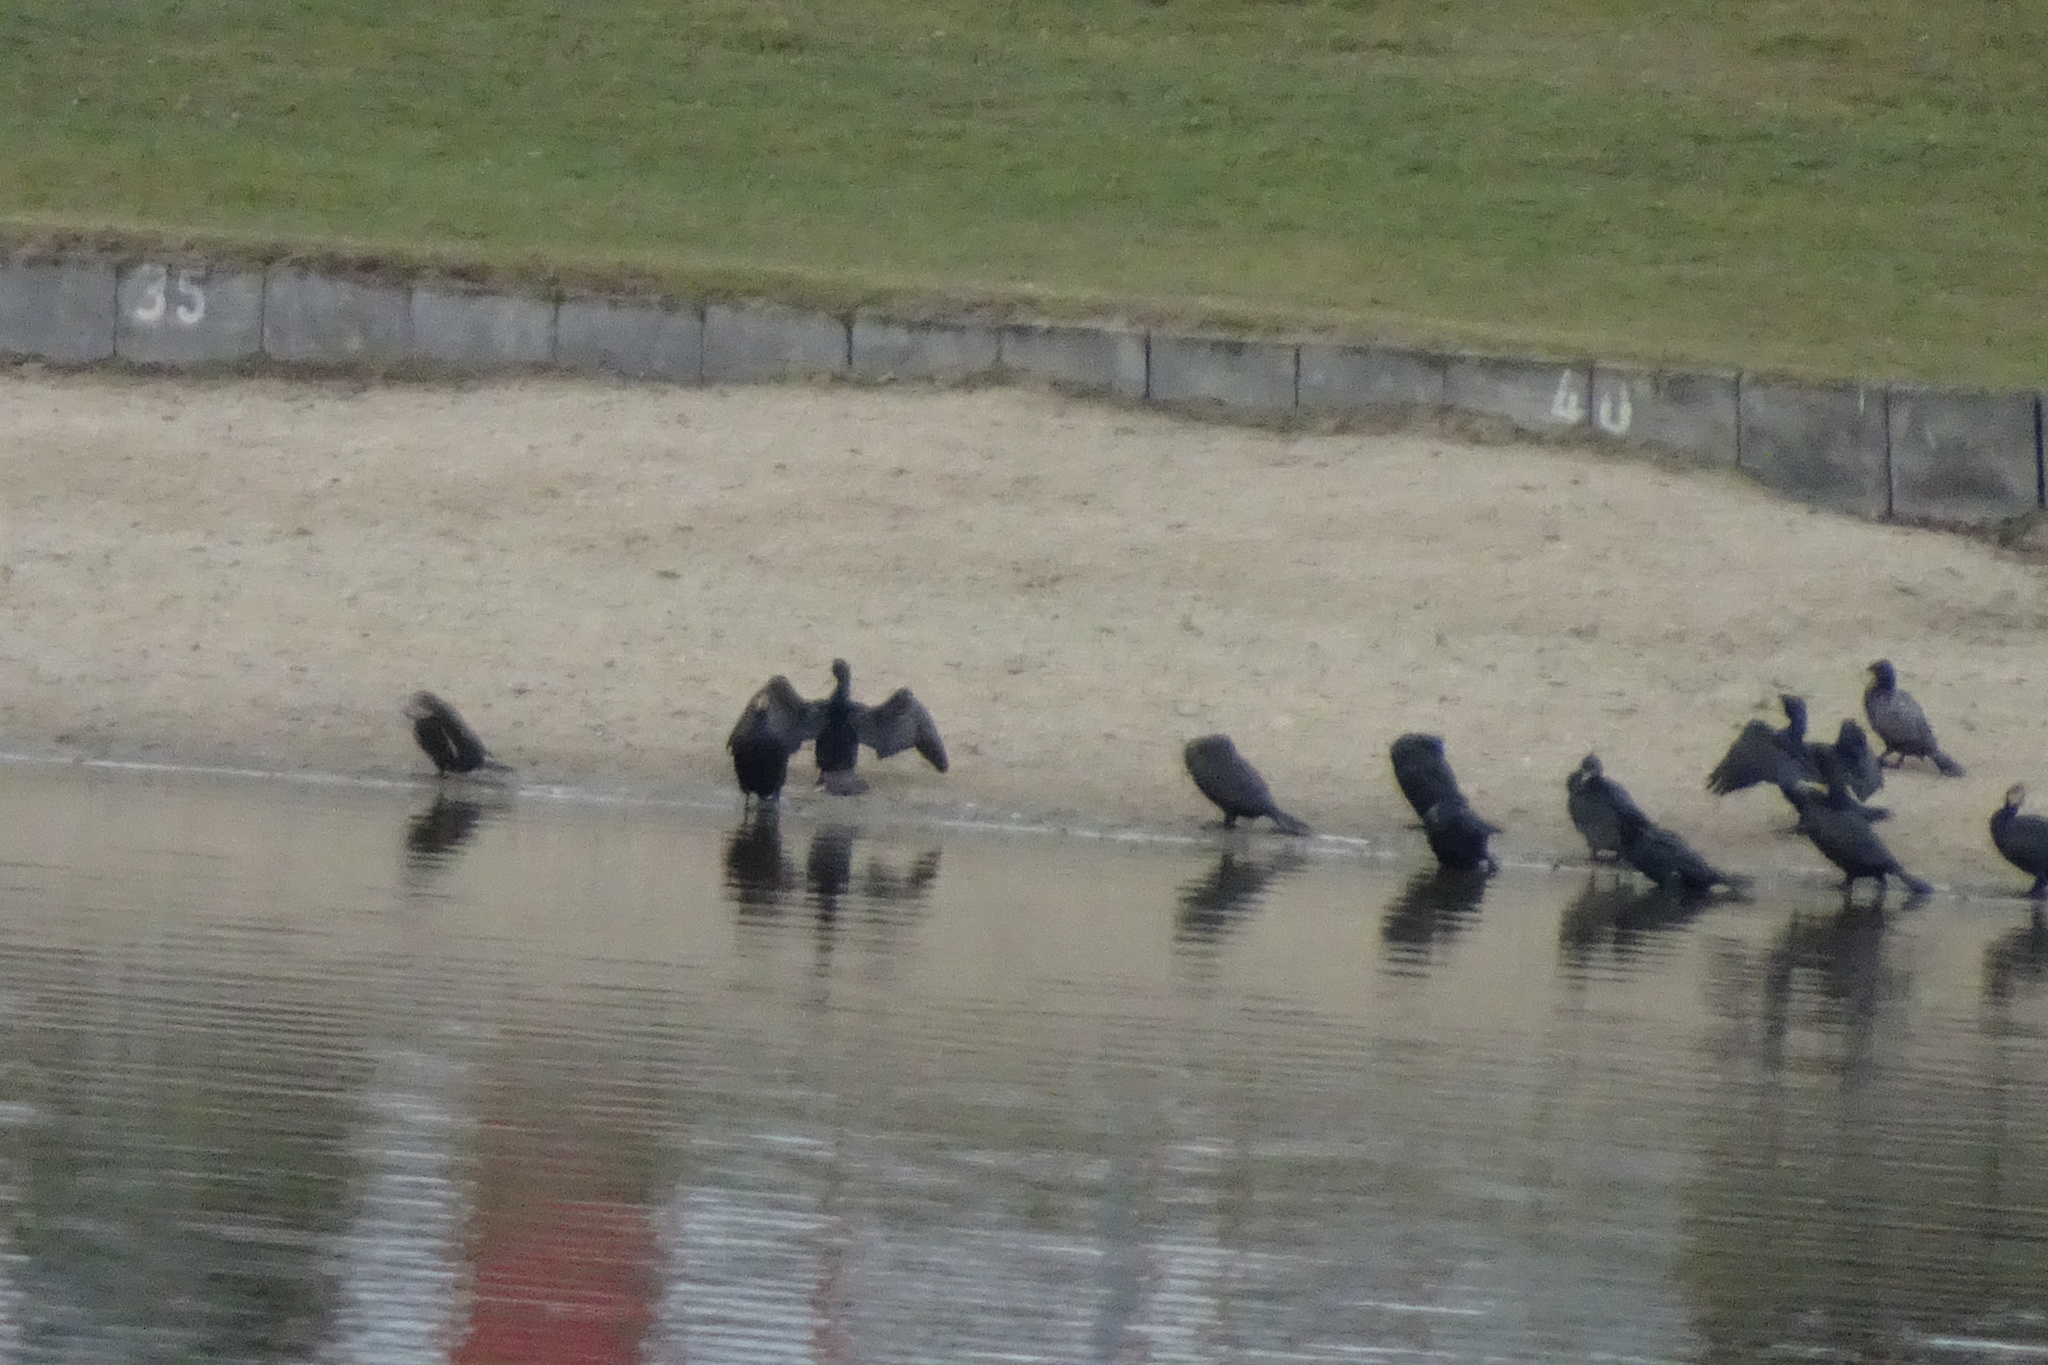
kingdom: Animalia
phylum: Chordata
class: Aves
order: Suliformes
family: Phalacrocoracidae
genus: Phalacrocorax
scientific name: Phalacrocorax carbo
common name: Great cormorant
